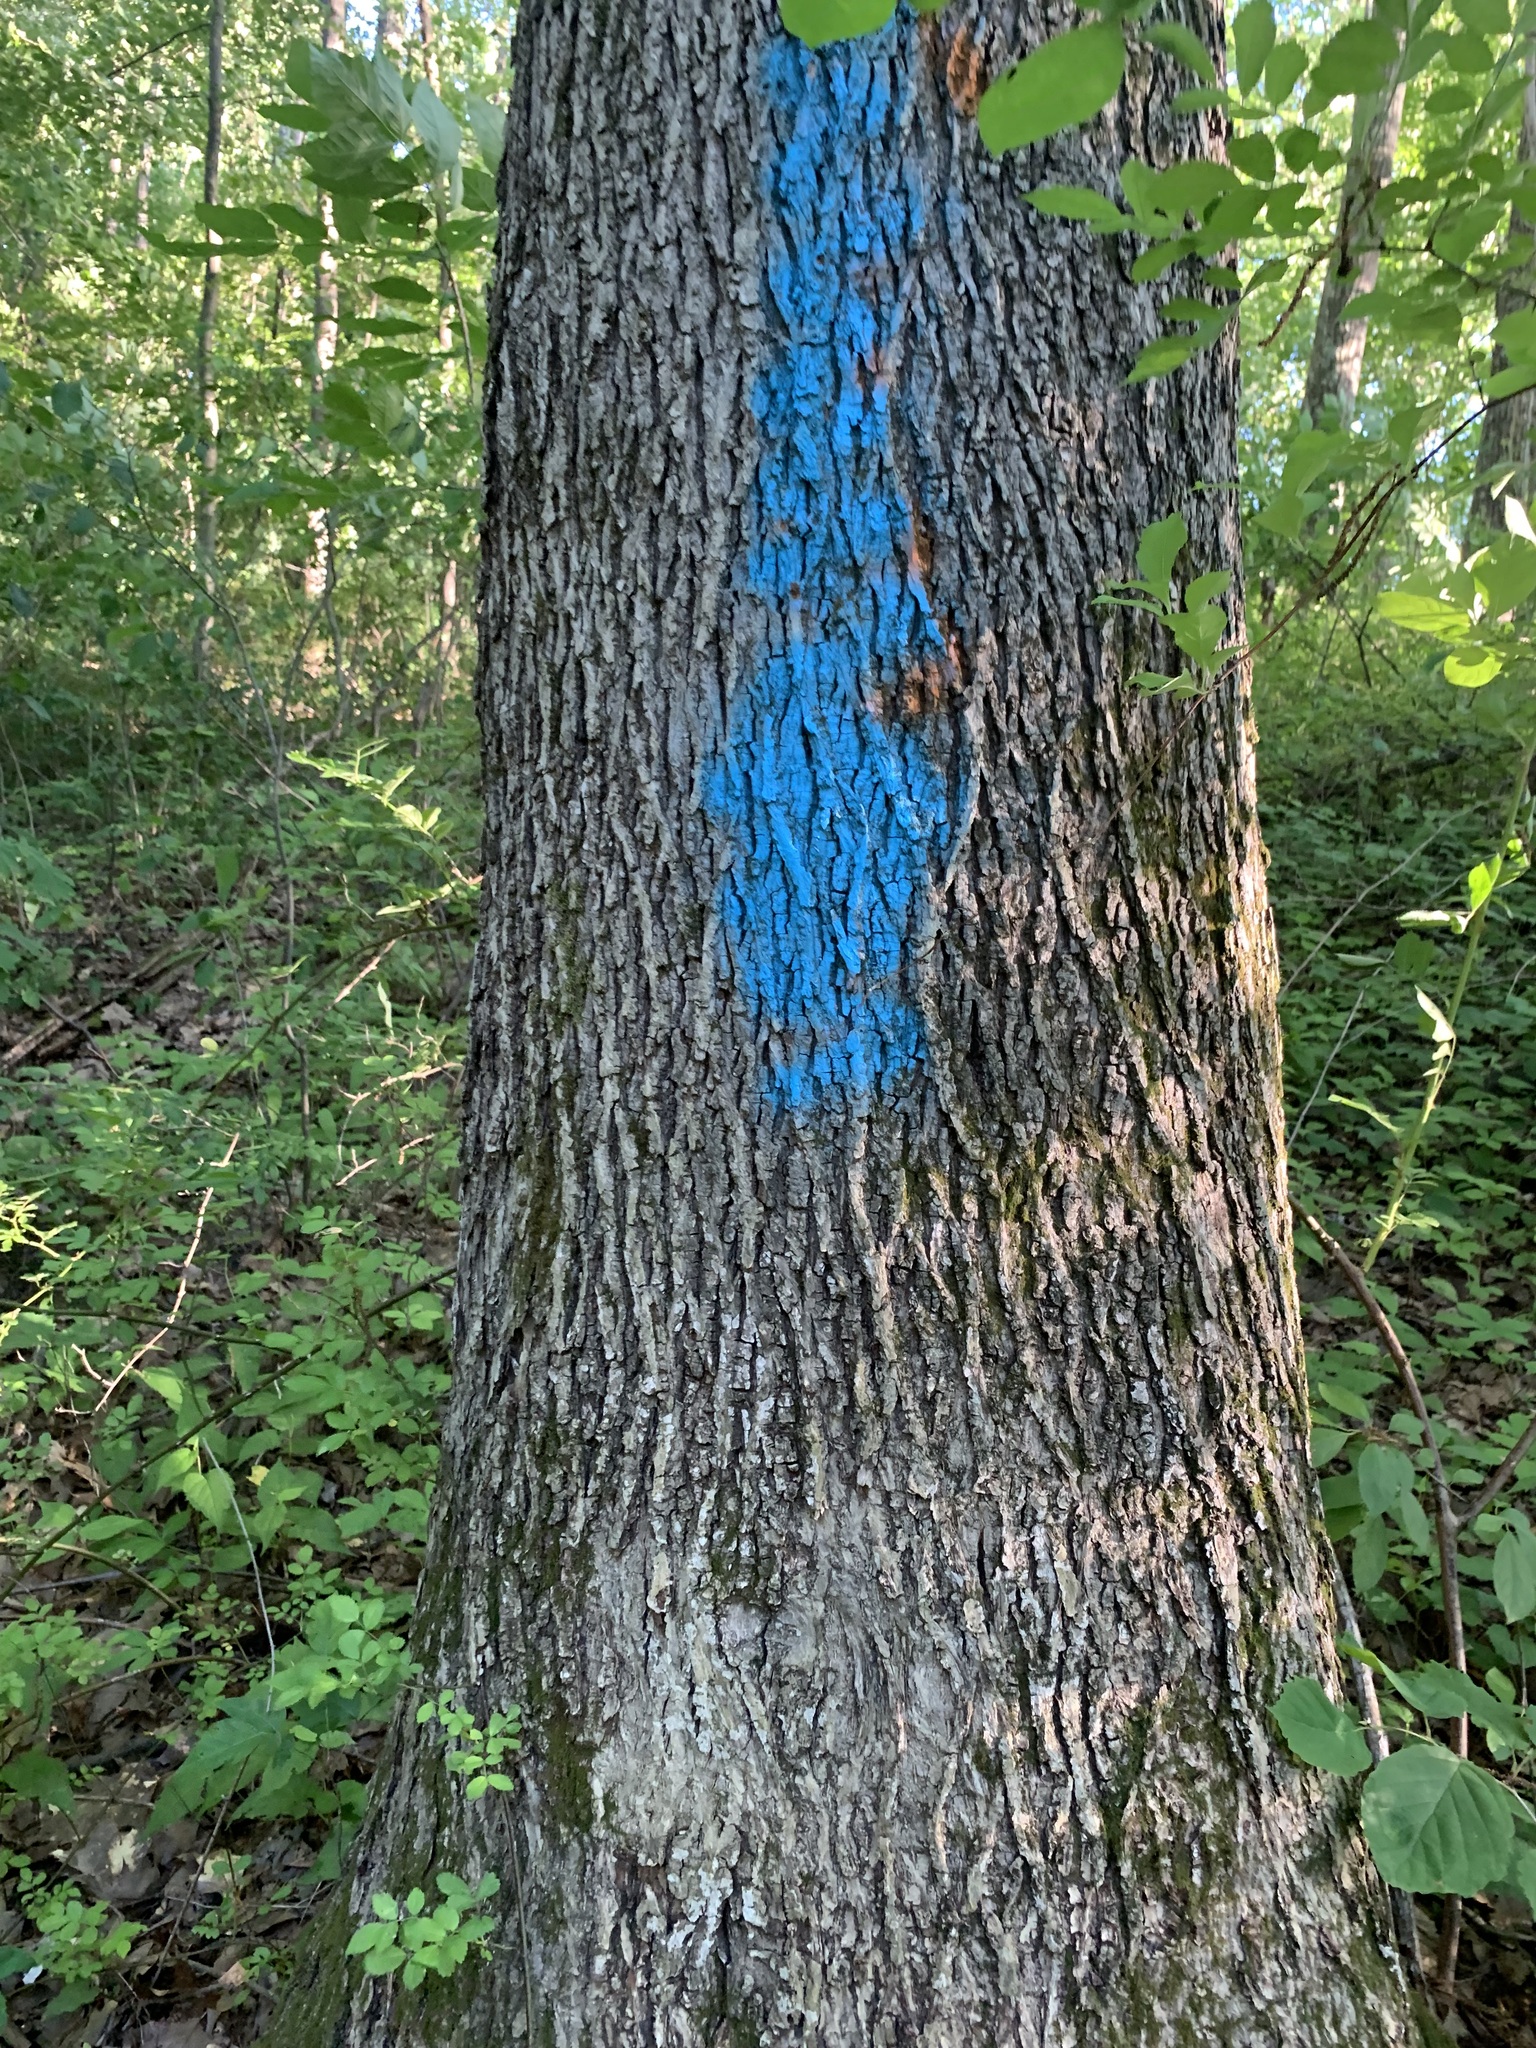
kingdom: Plantae
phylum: Tracheophyta
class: Magnoliopsida
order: Lamiales
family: Oleaceae
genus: Fraxinus
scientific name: Fraxinus americana
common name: White ash
